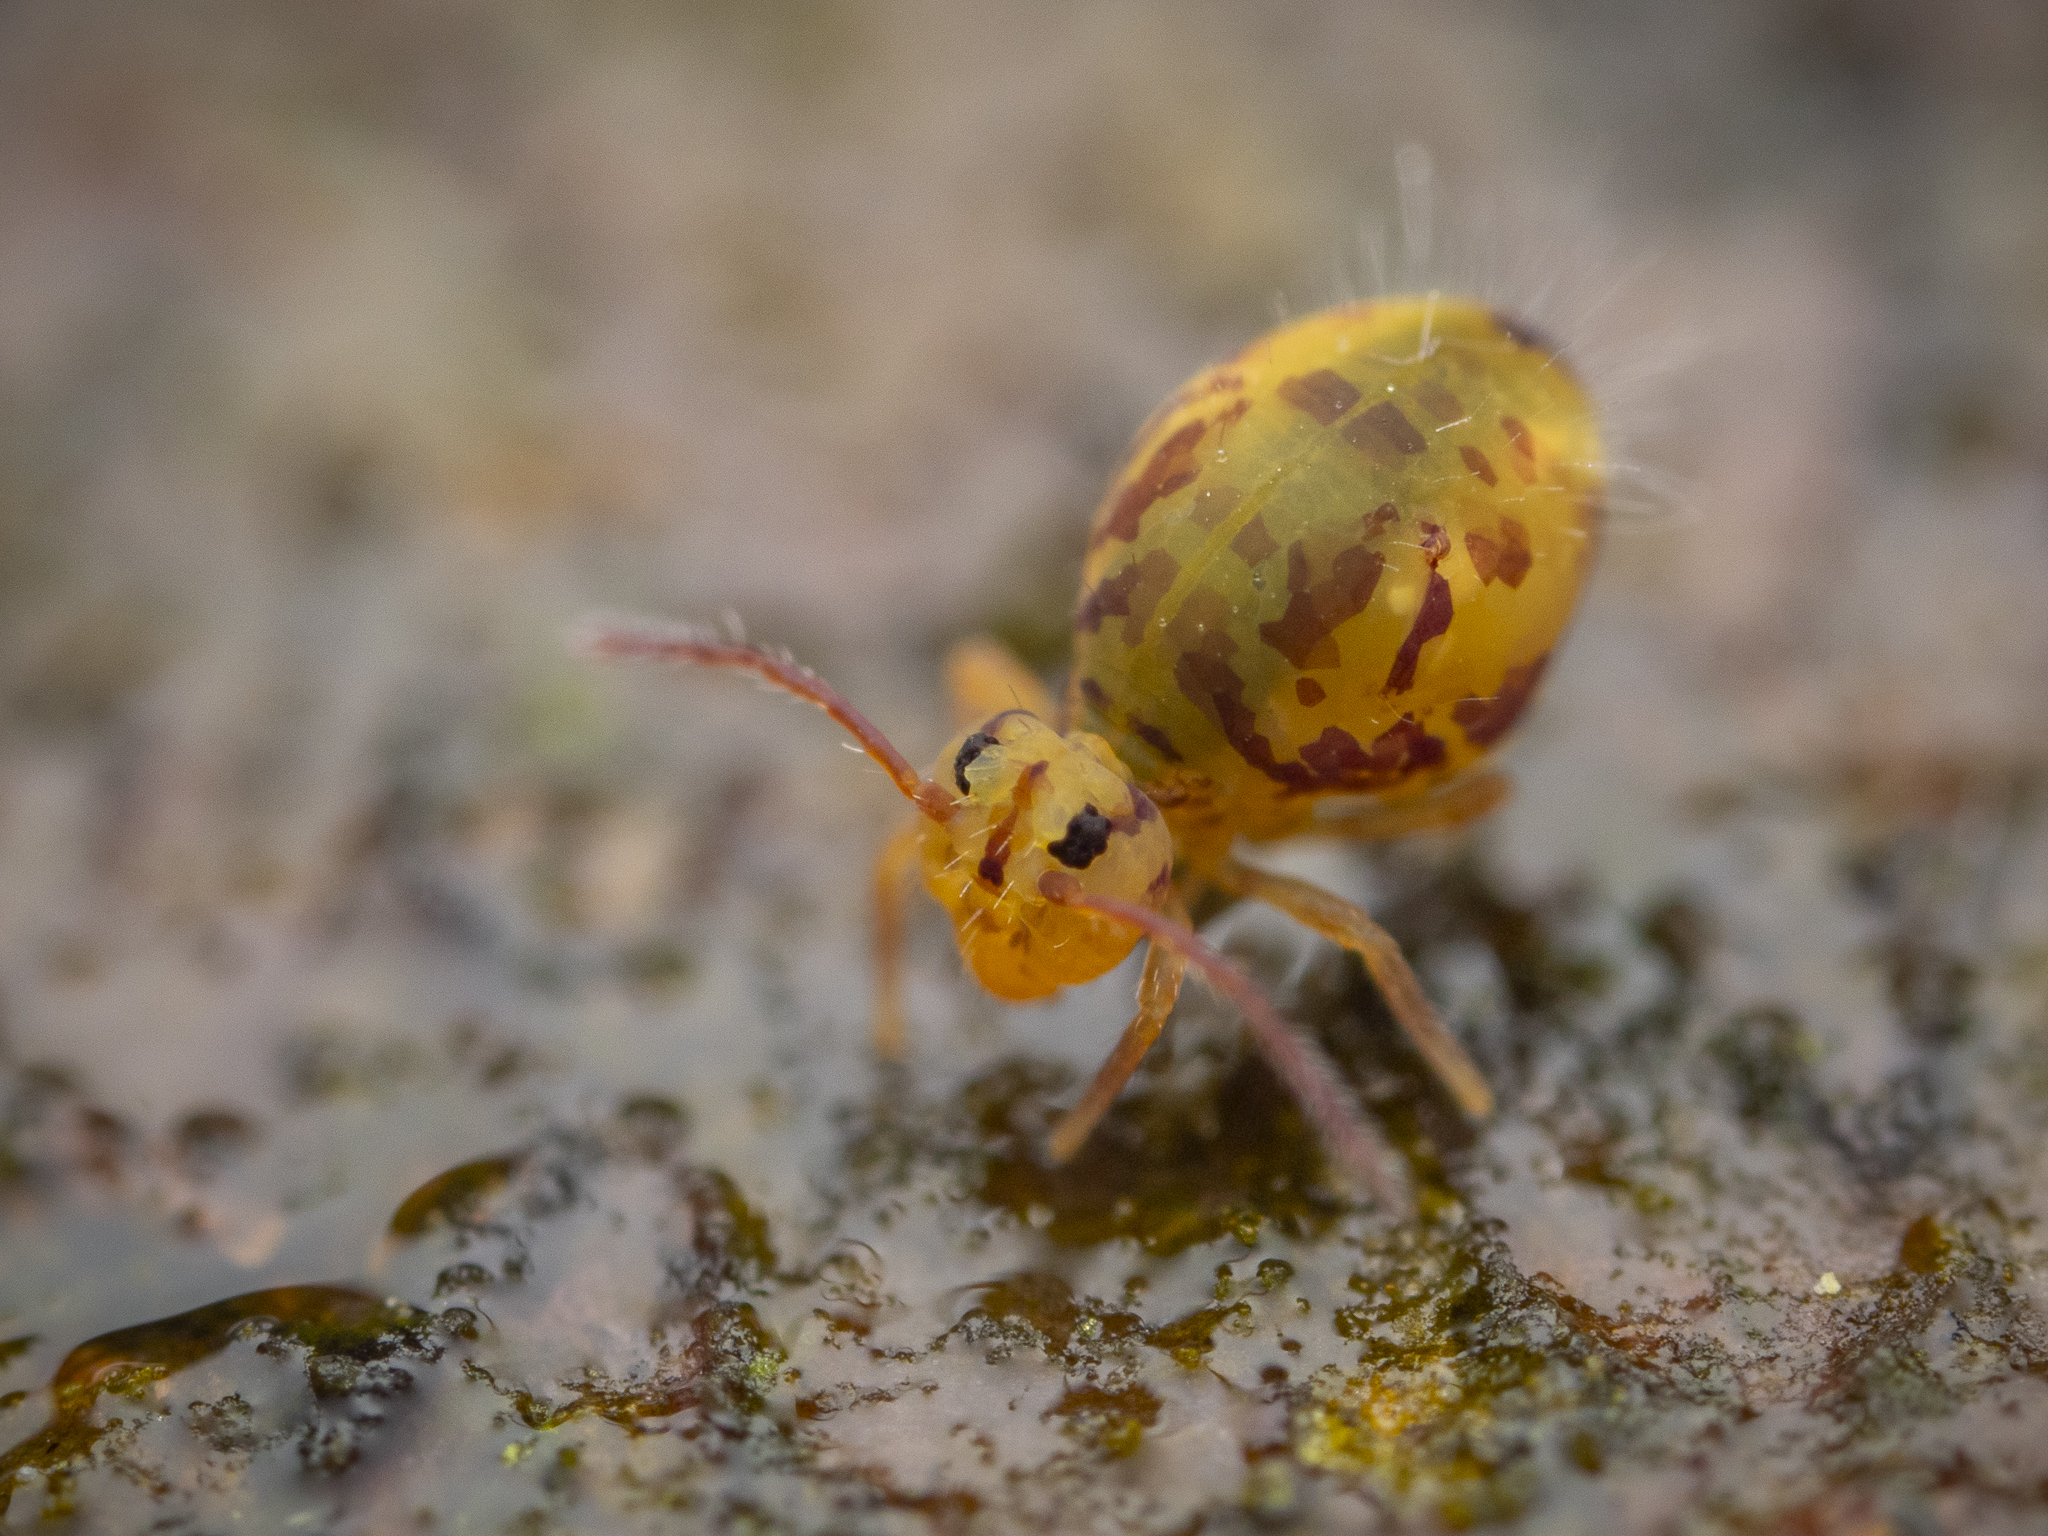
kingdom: Animalia
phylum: Arthropoda
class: Collembola
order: Symphypleona
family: Dicyrtomidae
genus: Dicyrtomina
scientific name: Dicyrtomina ornata
